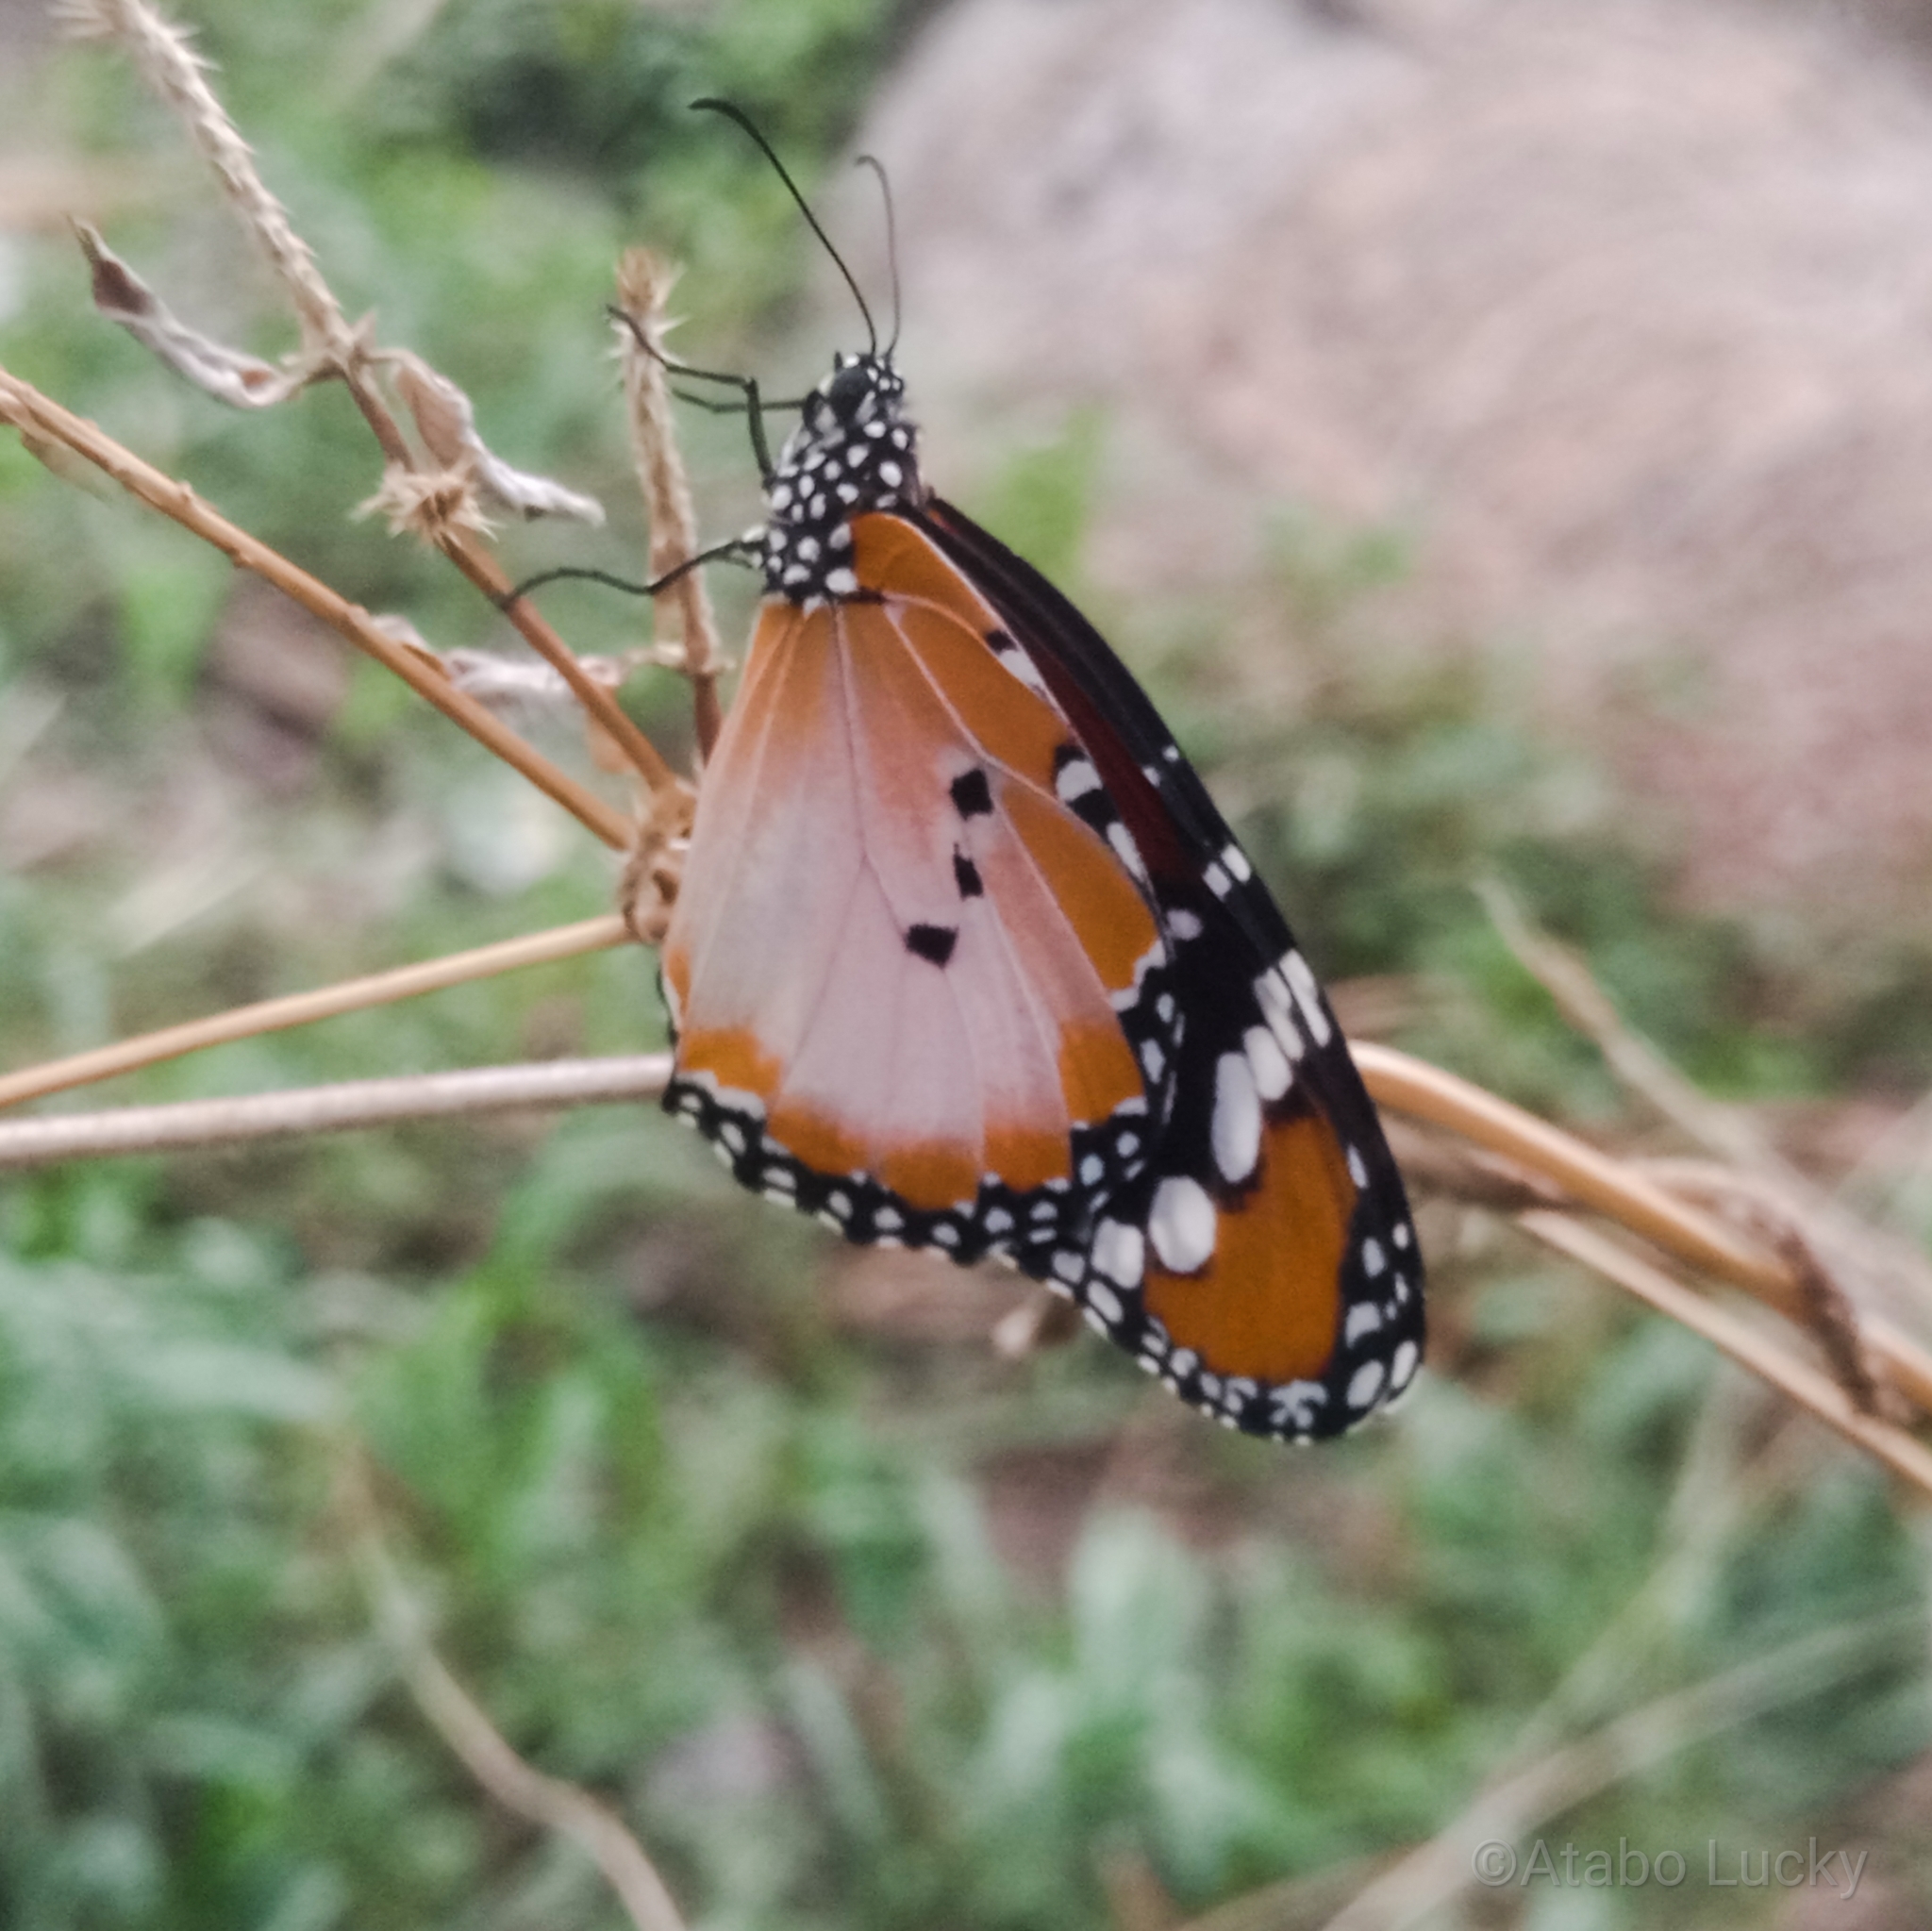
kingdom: Animalia
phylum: Arthropoda
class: Insecta
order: Lepidoptera
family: Nymphalidae
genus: Danaus
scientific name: Danaus chrysippus
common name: Plain tiger
